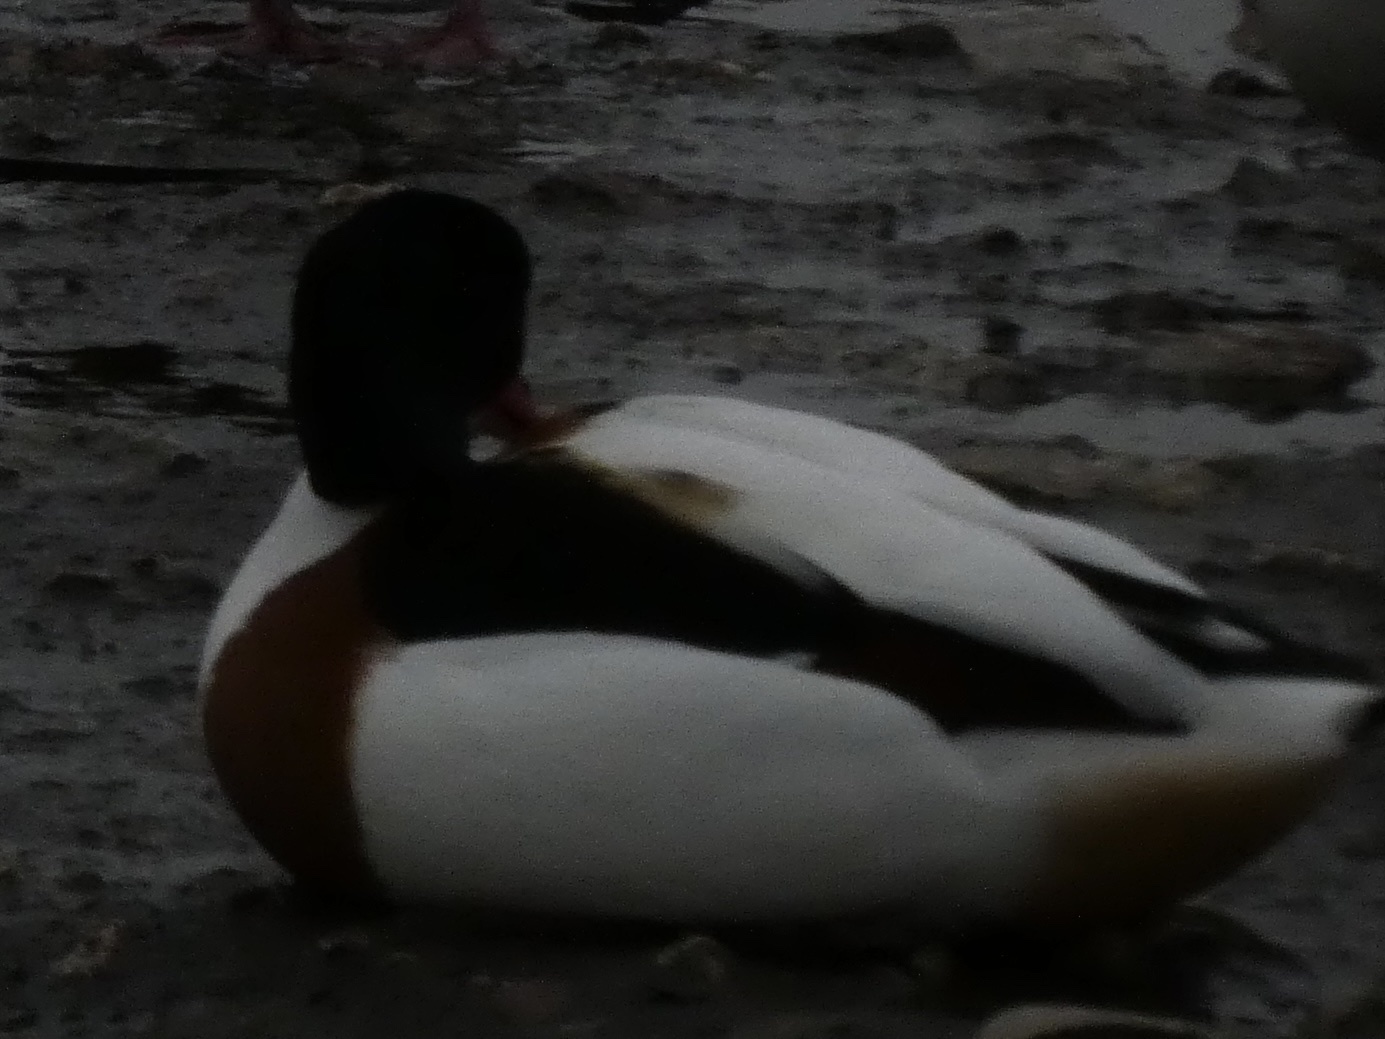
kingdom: Animalia
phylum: Chordata
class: Aves
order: Anseriformes
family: Anatidae
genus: Tadorna
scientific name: Tadorna tadorna
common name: Common shelduck
